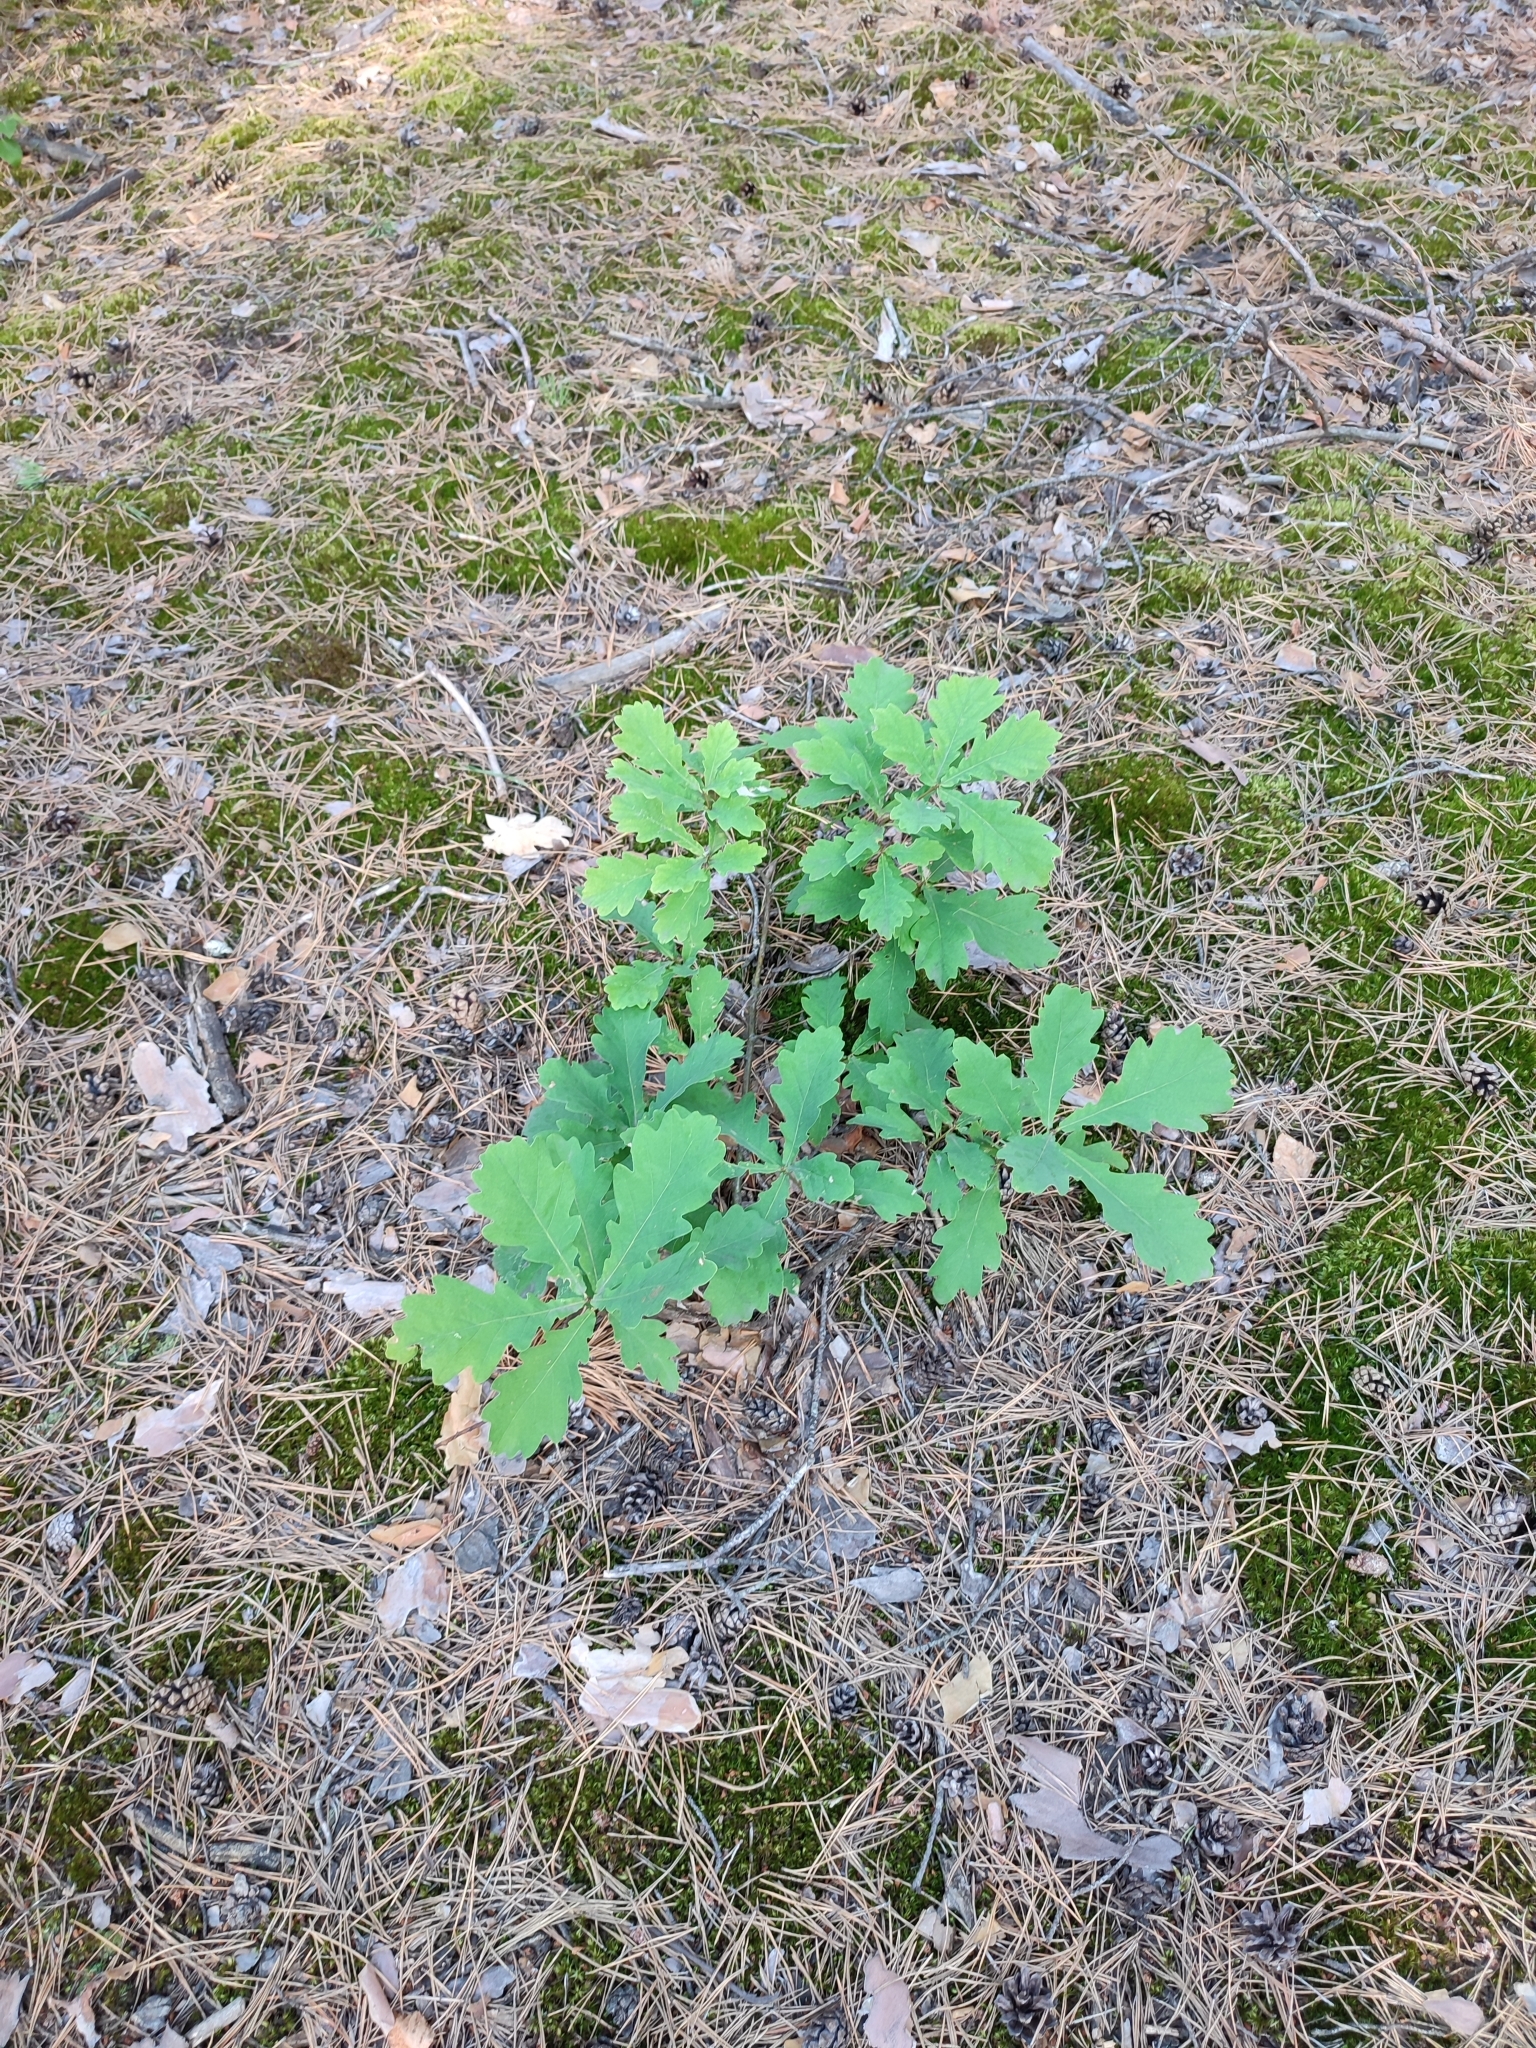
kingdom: Plantae
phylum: Tracheophyta
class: Magnoliopsida
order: Fagales
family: Fagaceae
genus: Quercus
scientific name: Quercus robur
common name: Pedunculate oak
